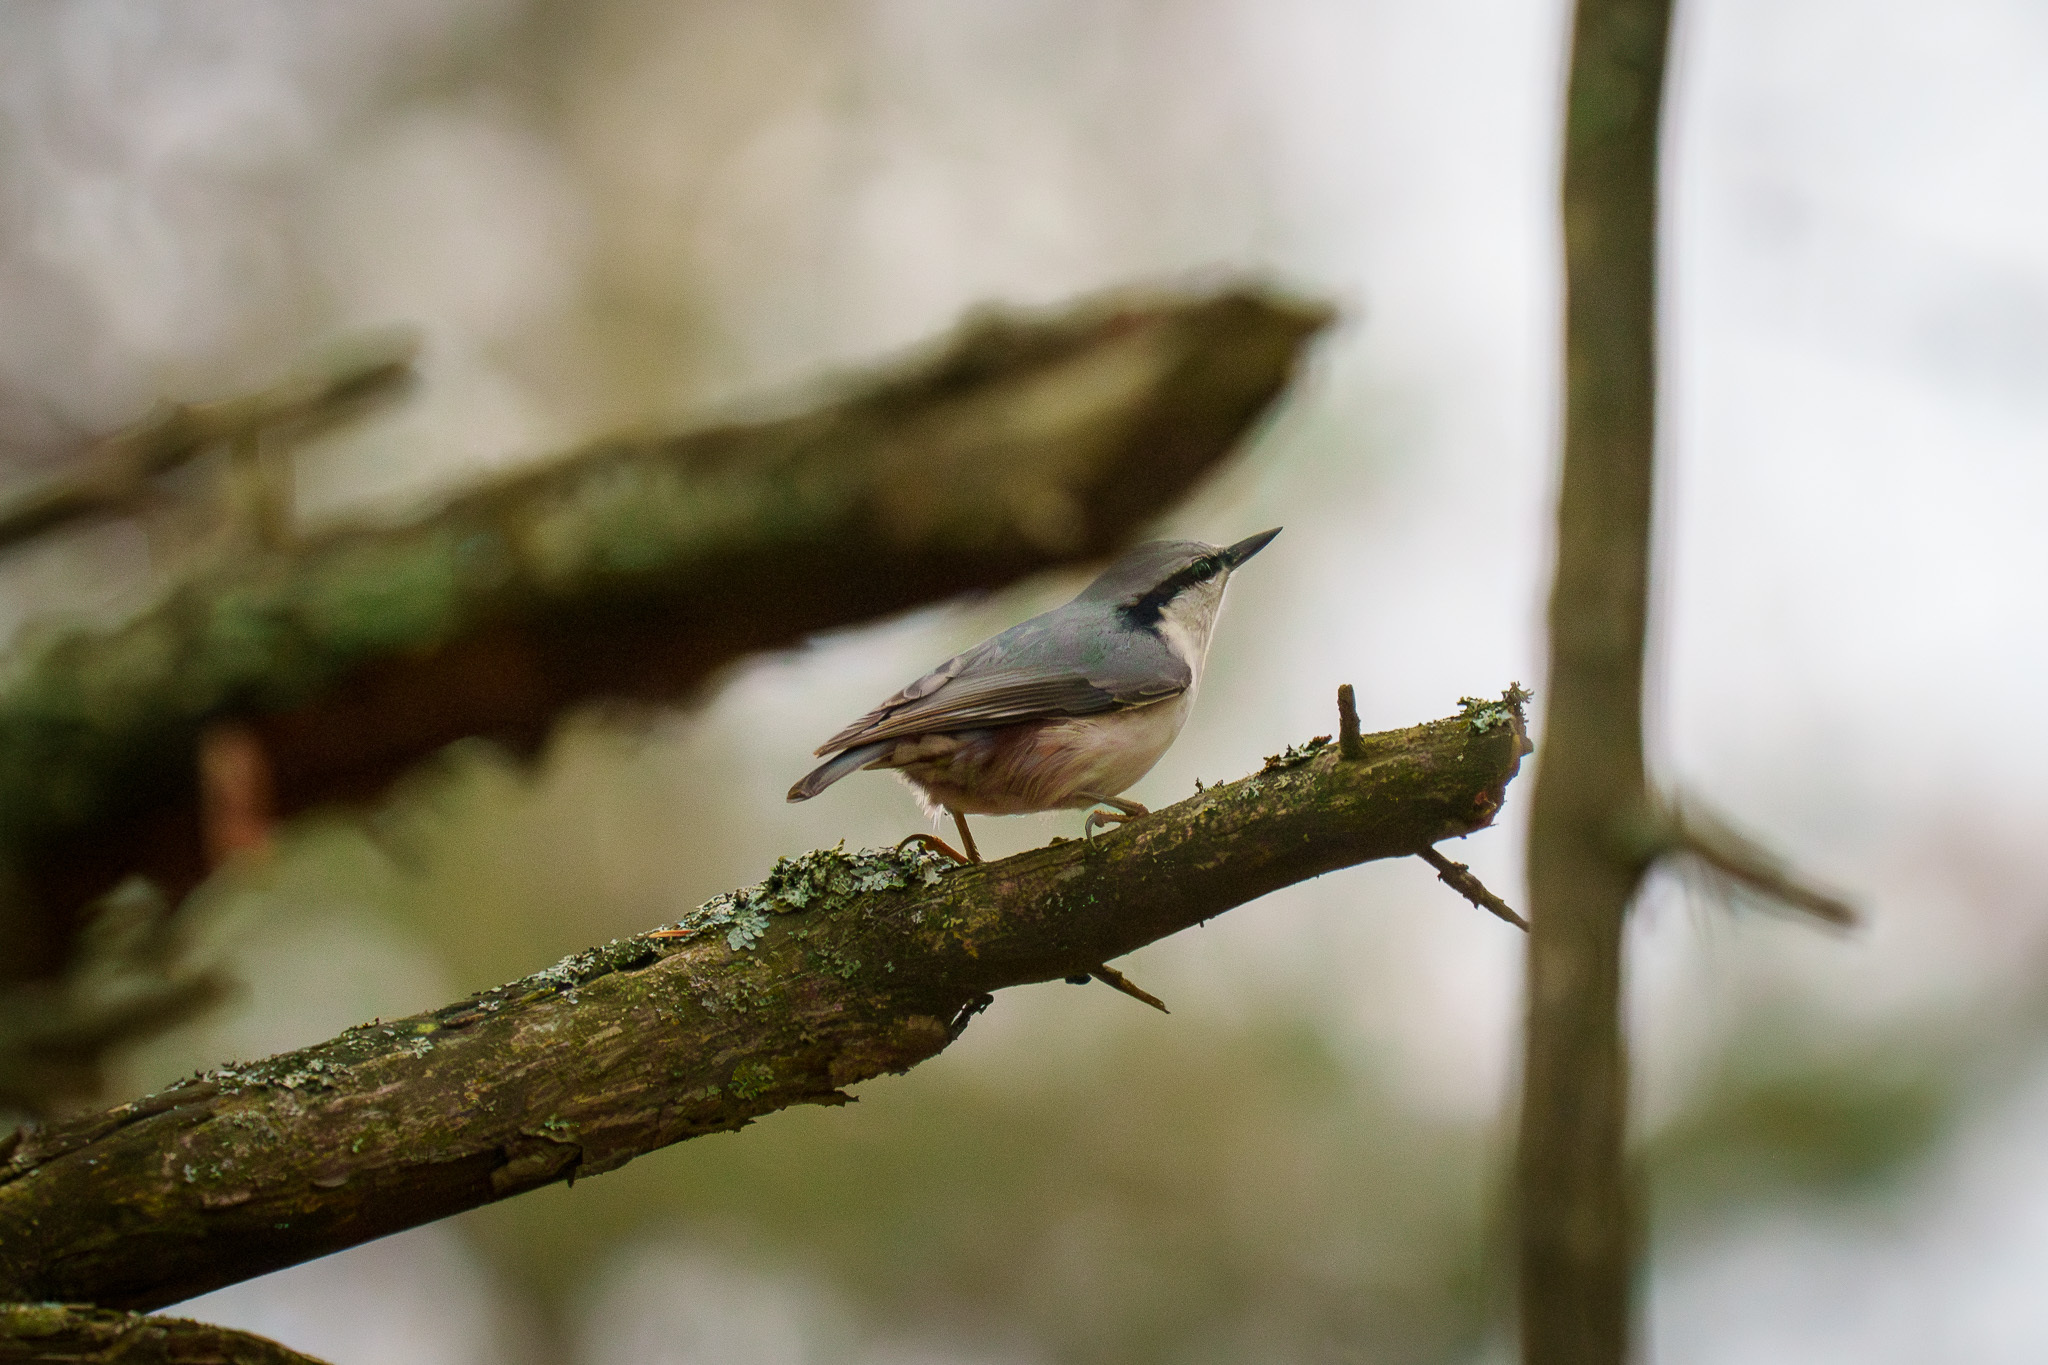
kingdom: Animalia
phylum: Chordata
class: Aves
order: Passeriformes
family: Sittidae
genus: Sitta
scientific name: Sitta europaea
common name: Eurasian nuthatch
